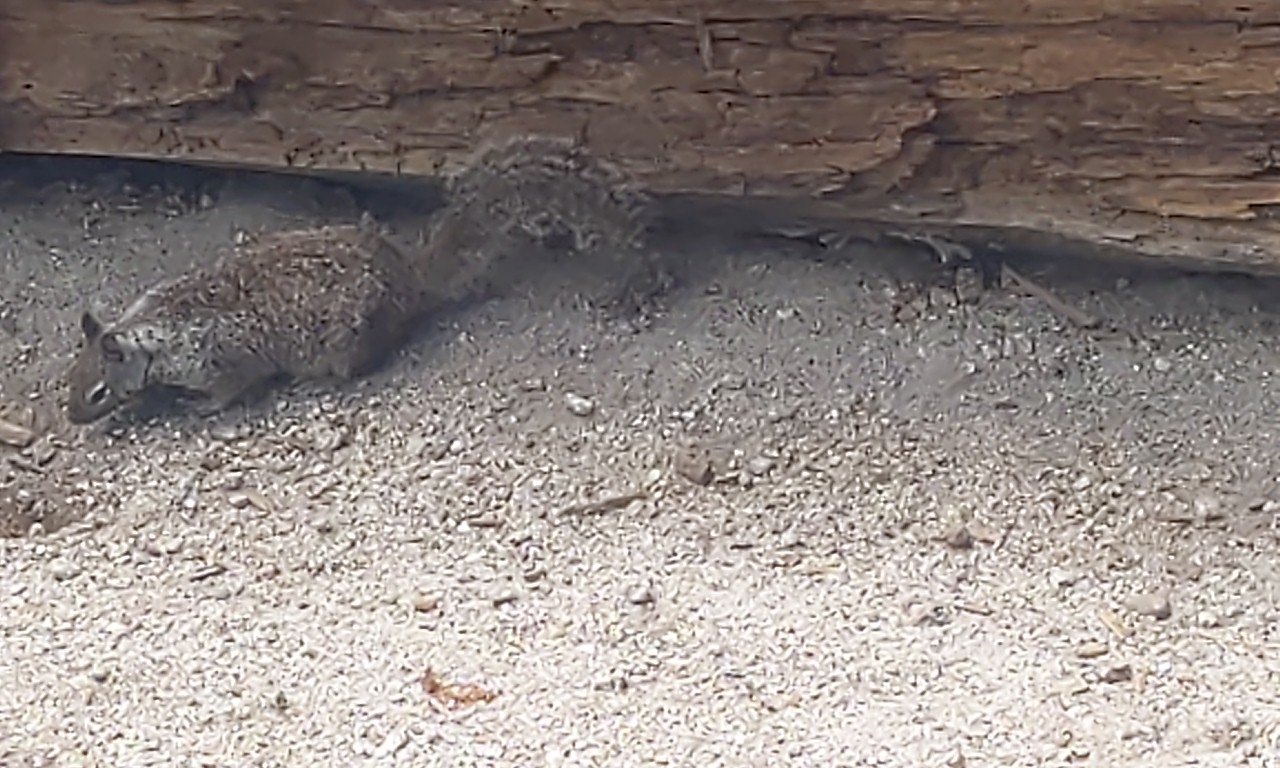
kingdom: Animalia
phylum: Chordata
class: Mammalia
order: Rodentia
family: Sciuridae
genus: Otospermophilus
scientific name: Otospermophilus beecheyi
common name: California ground squirrel
